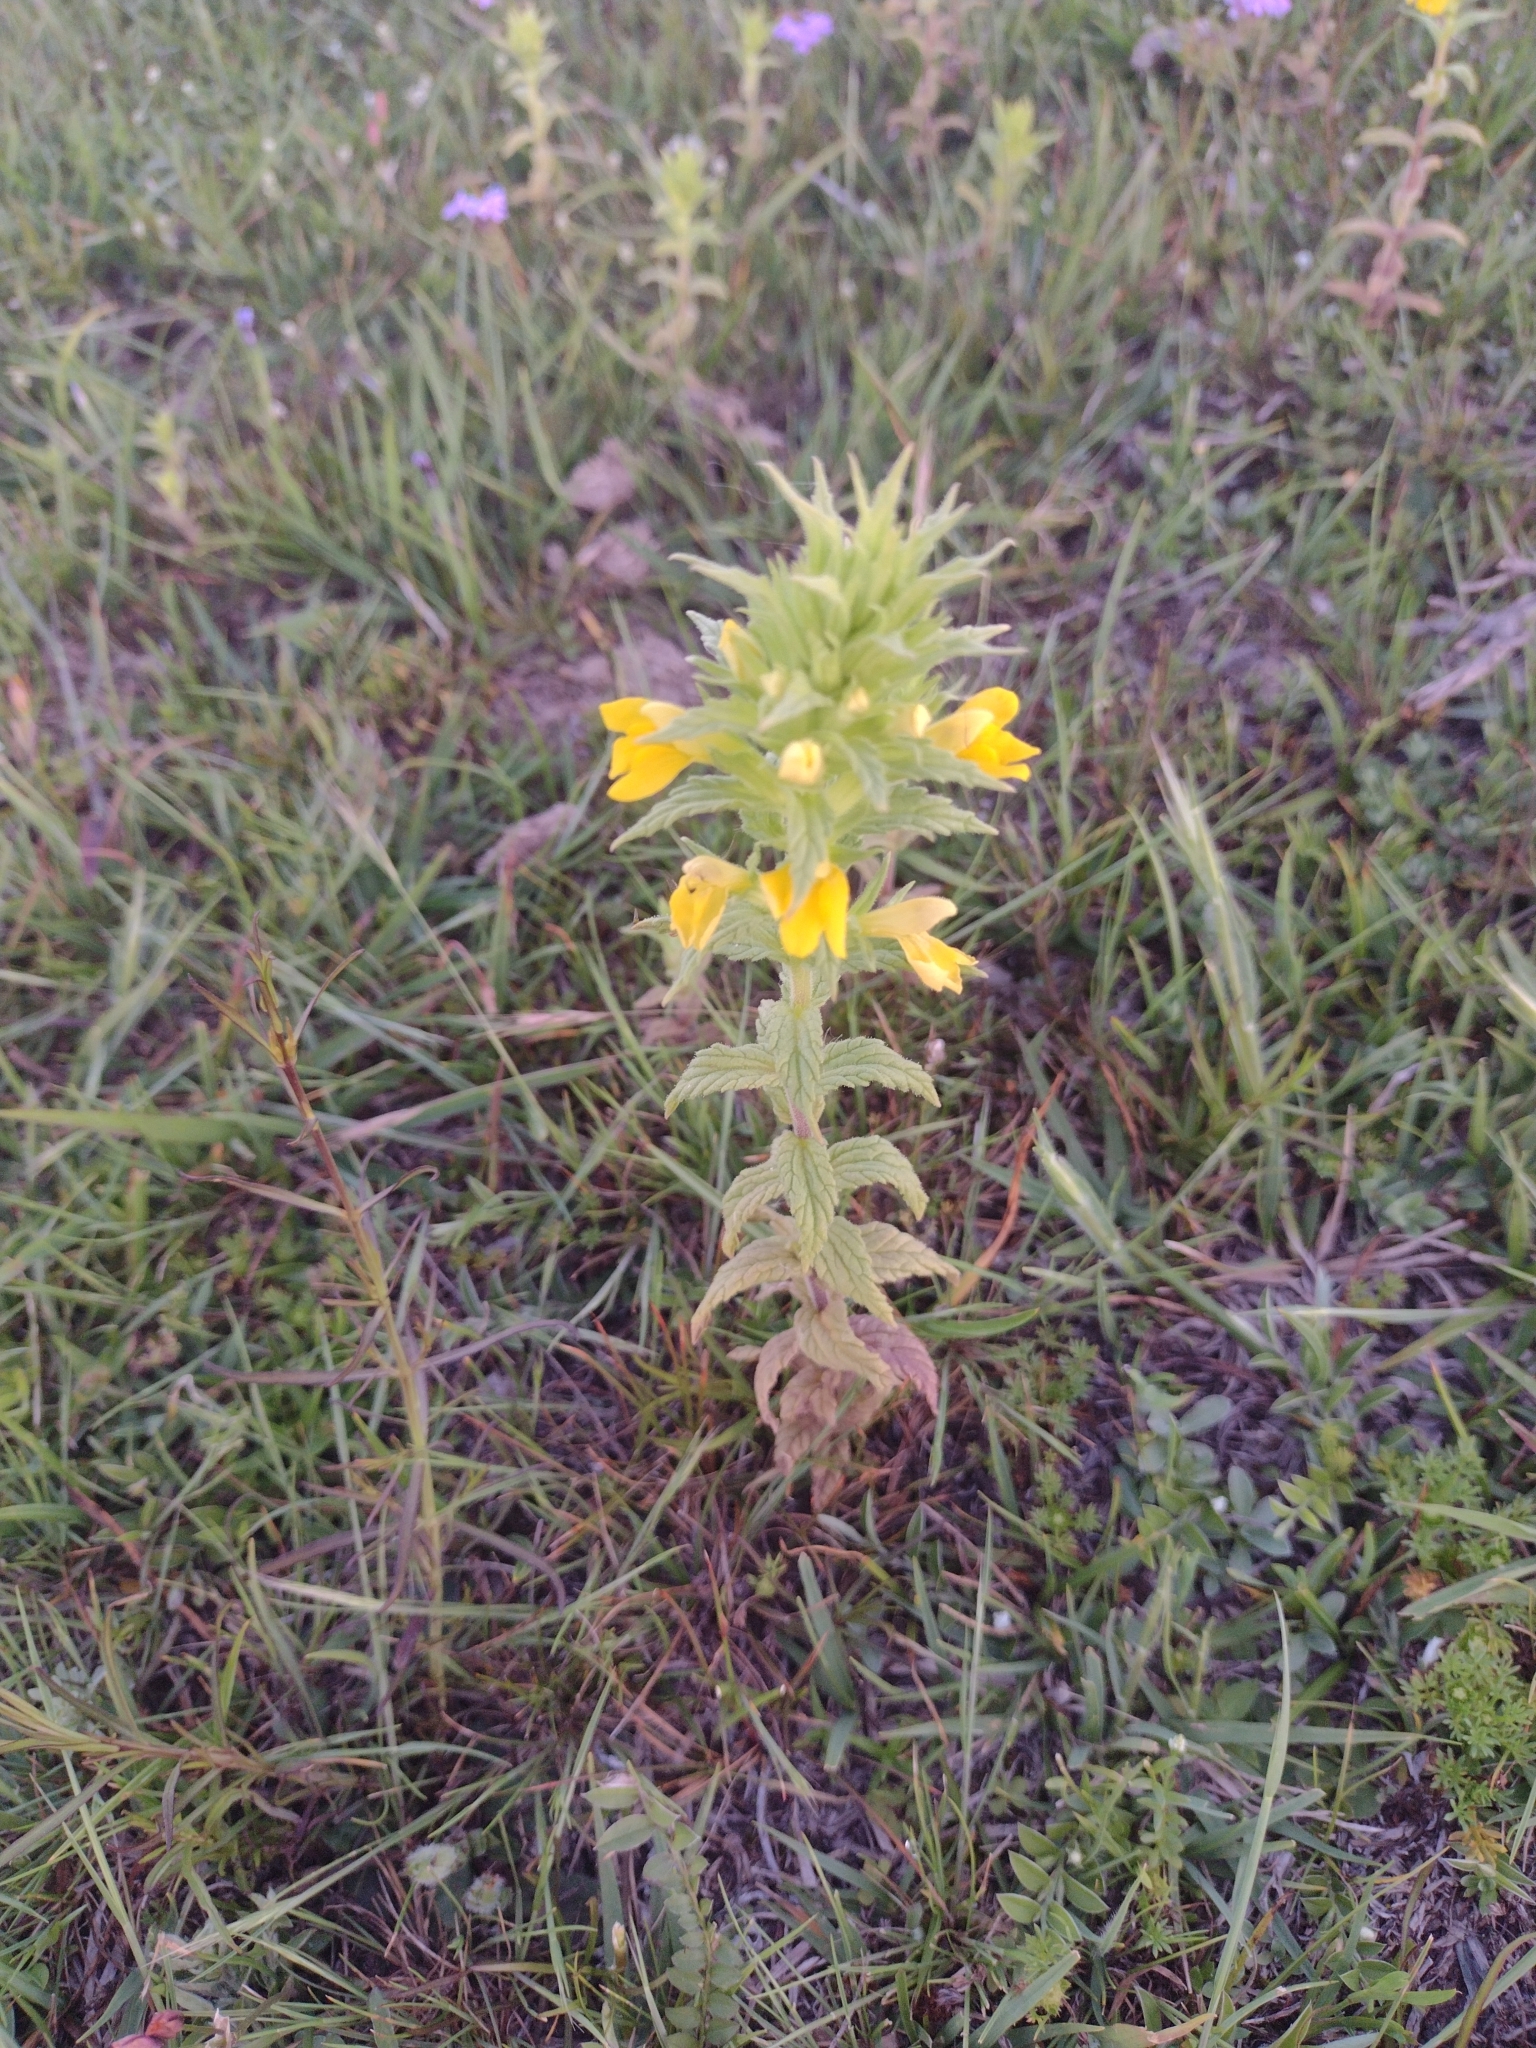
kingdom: Plantae
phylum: Tracheophyta
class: Magnoliopsida
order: Lamiales
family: Orobanchaceae
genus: Bellardia
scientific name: Bellardia viscosa
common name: Sticky parentucellia
